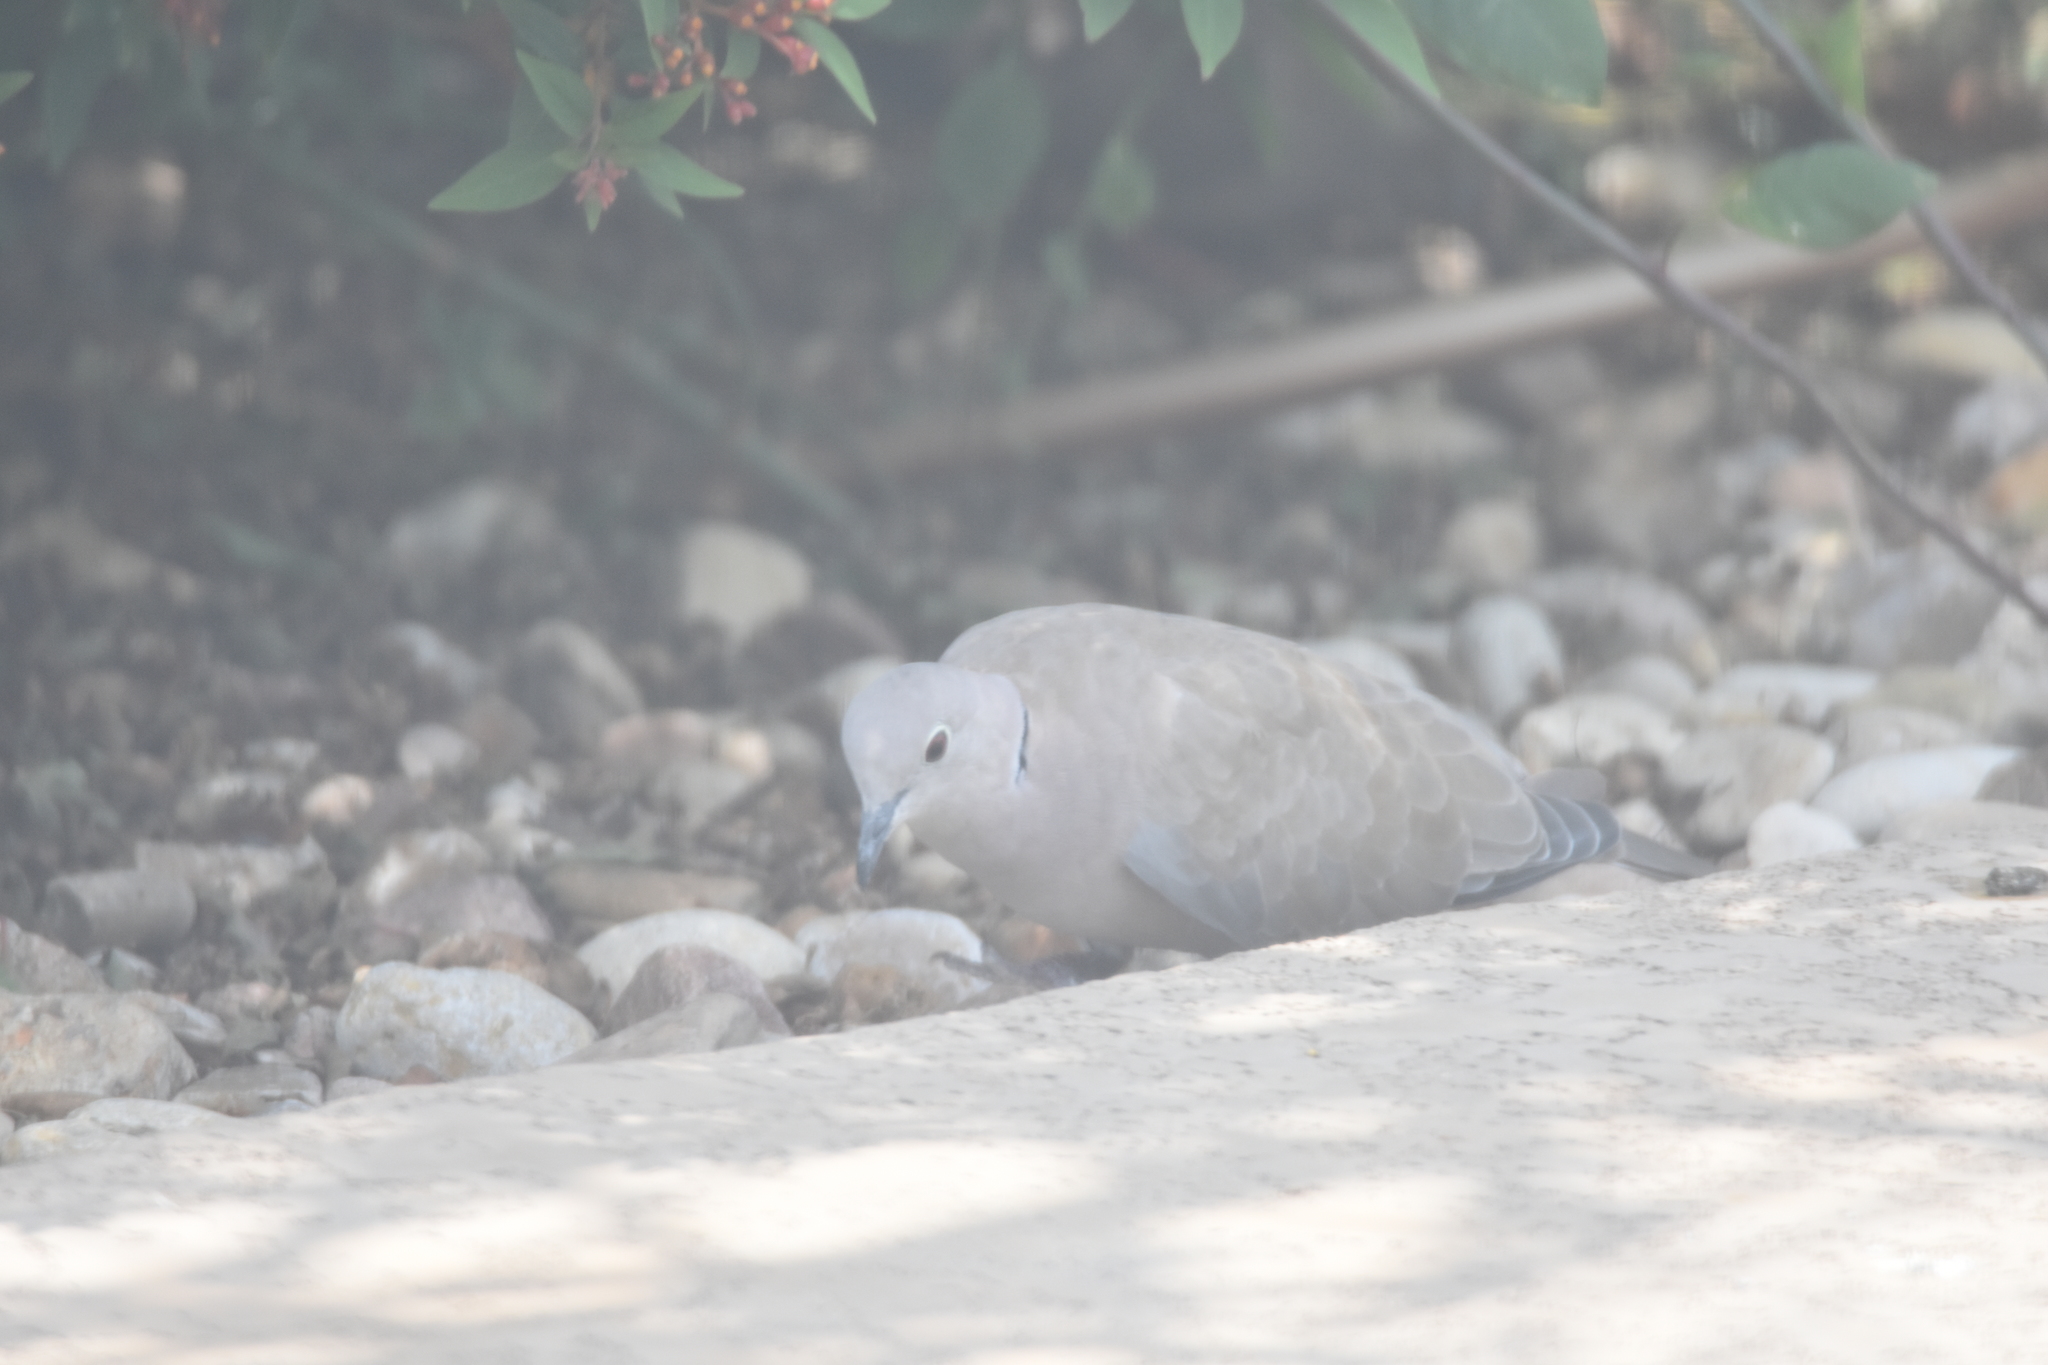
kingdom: Animalia
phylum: Chordata
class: Aves
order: Columbiformes
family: Columbidae
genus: Streptopelia
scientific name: Streptopelia decaocto
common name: Eurasian collared dove
